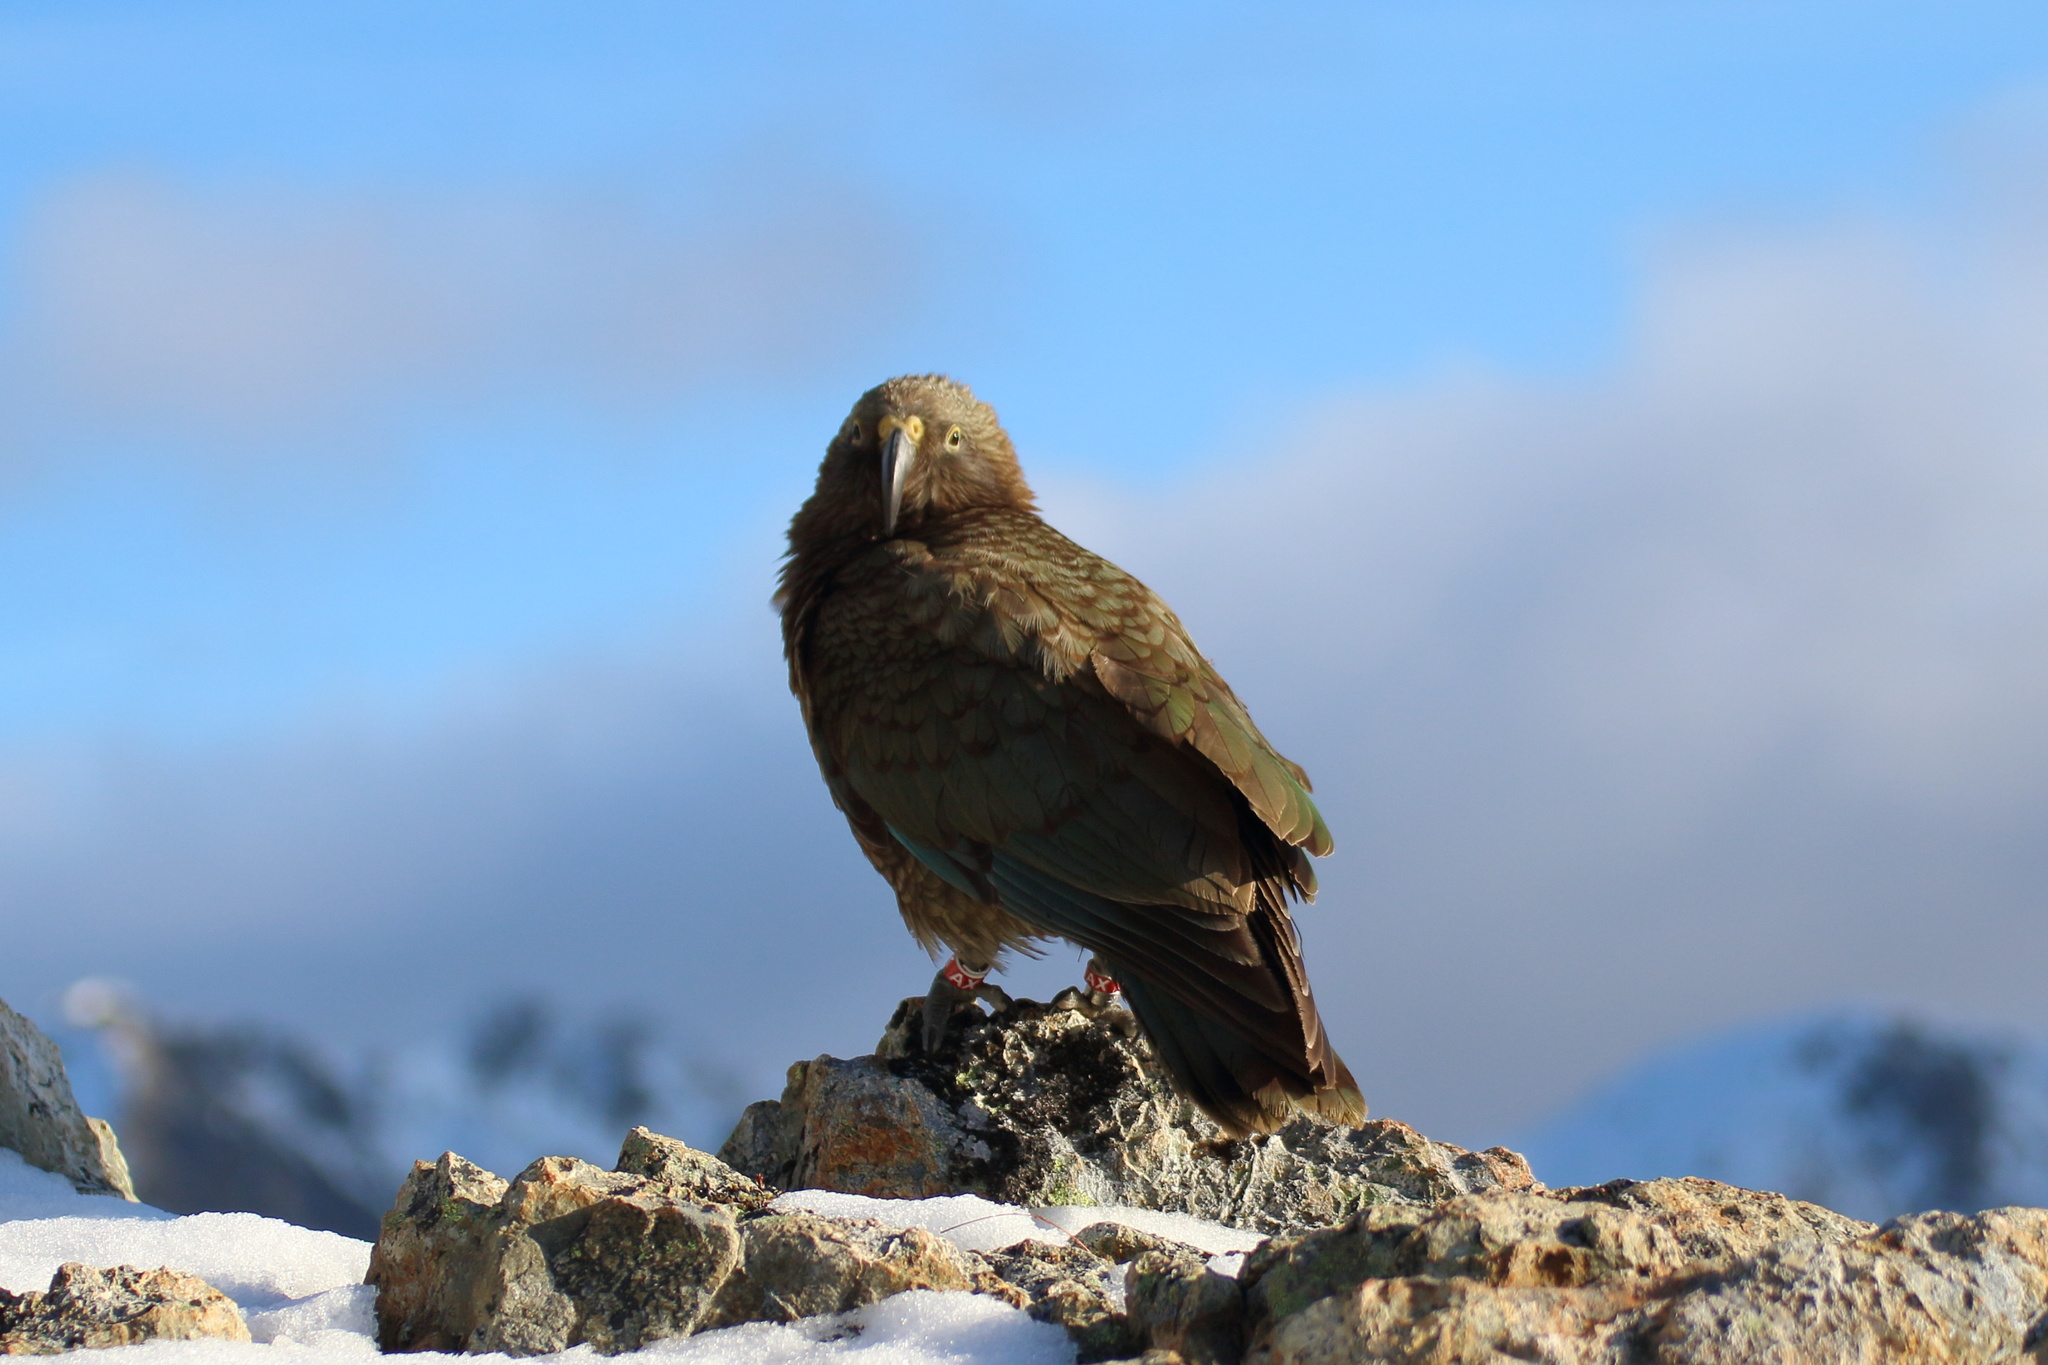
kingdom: Animalia
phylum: Chordata
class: Aves
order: Psittaciformes
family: Psittacidae
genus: Nestor
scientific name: Nestor notabilis
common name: Kea
